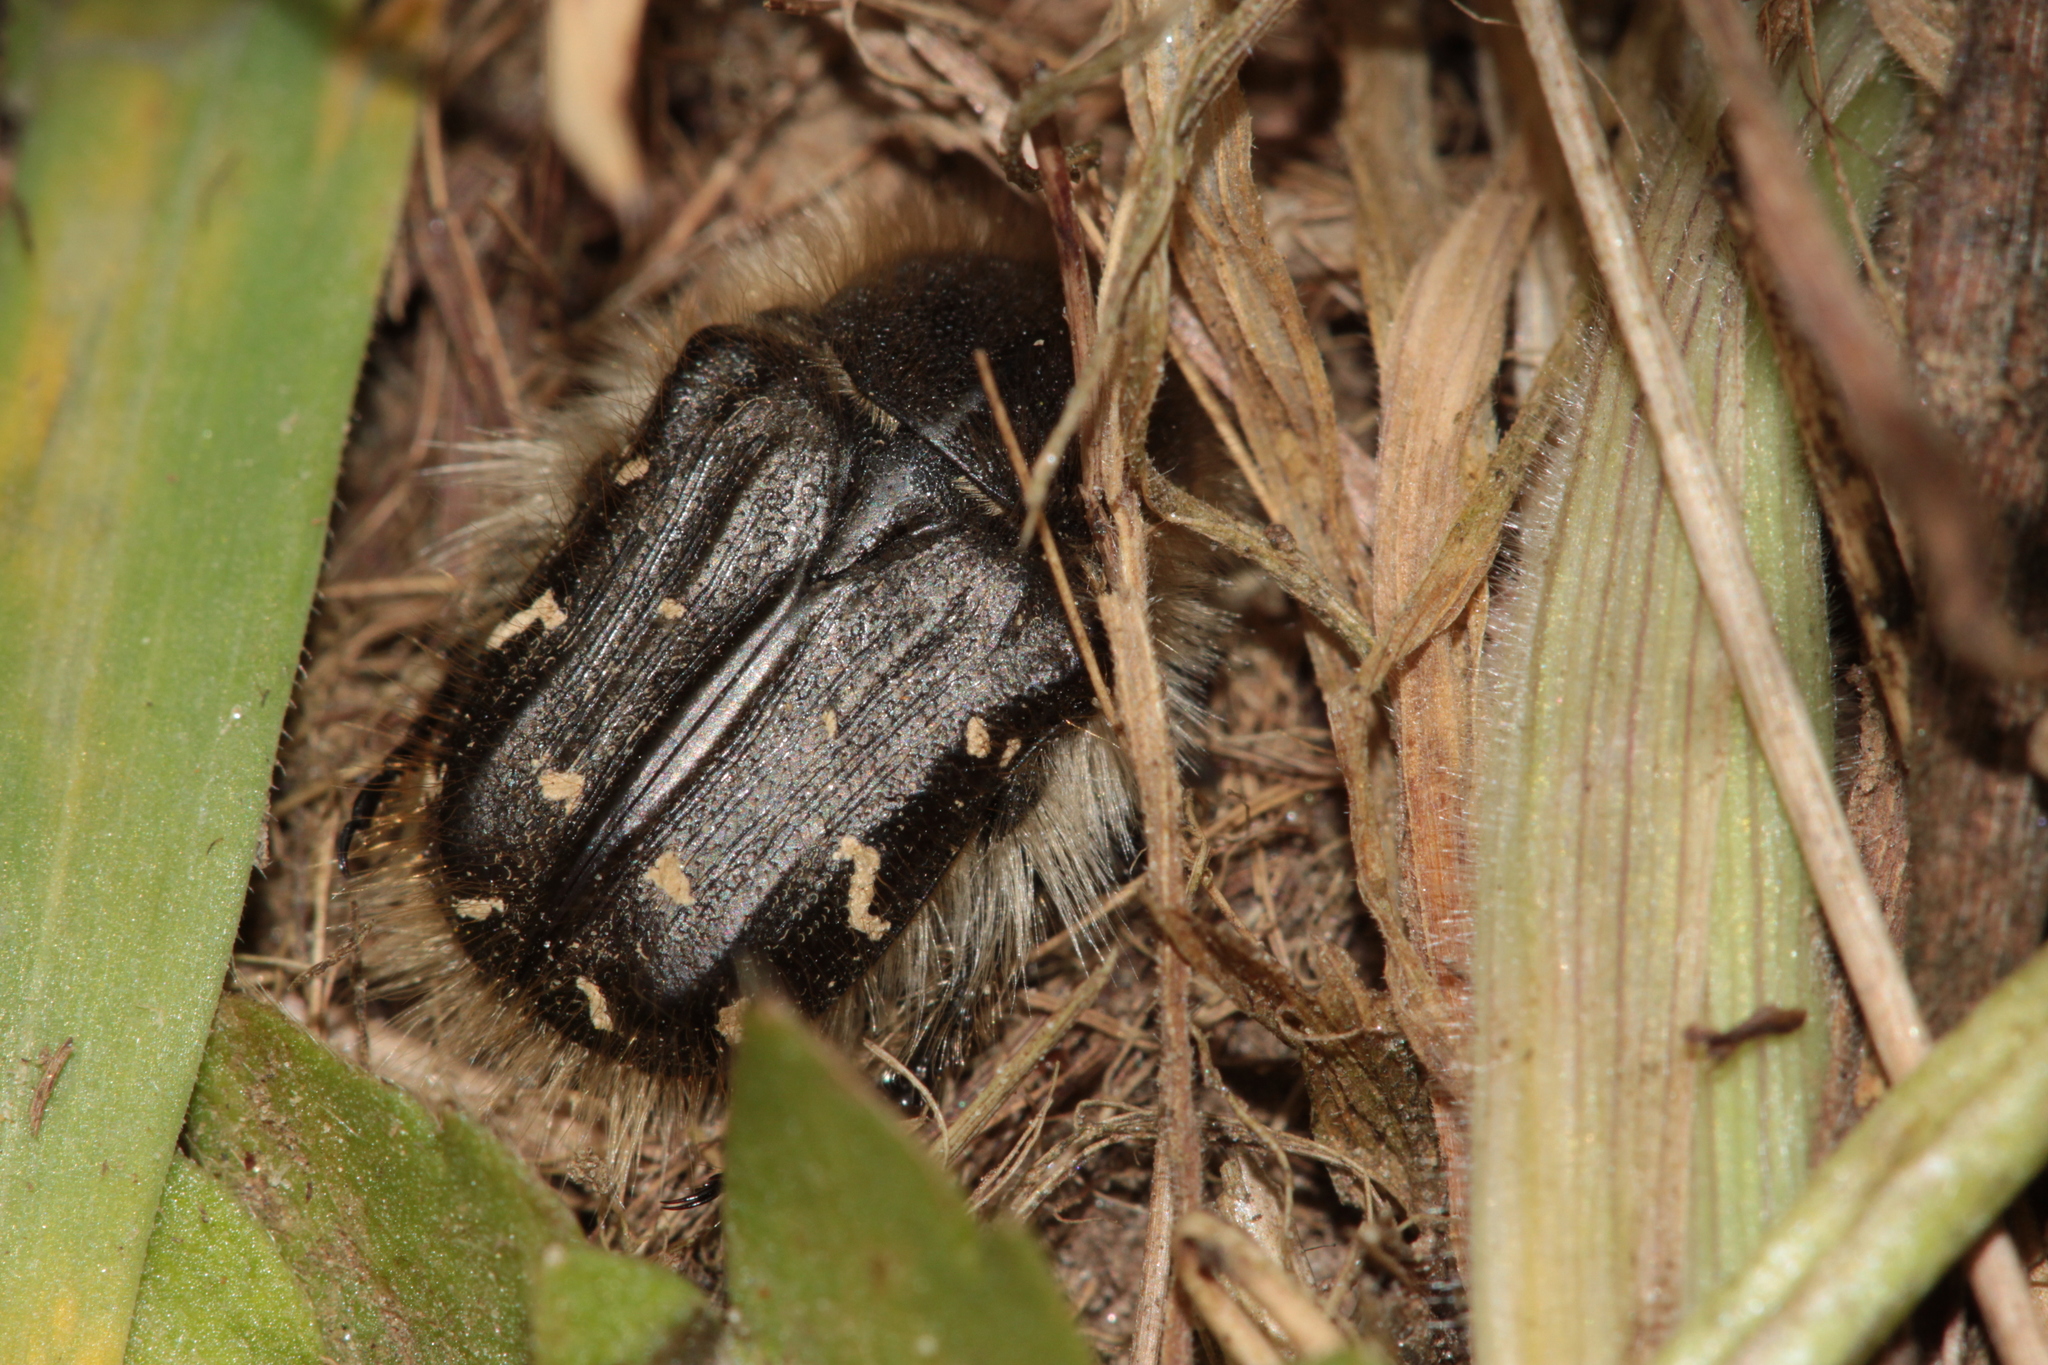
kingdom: Animalia
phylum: Arthropoda
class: Insecta
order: Coleoptera
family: Scarabaeidae
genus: Tropinota
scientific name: Tropinota hirta
